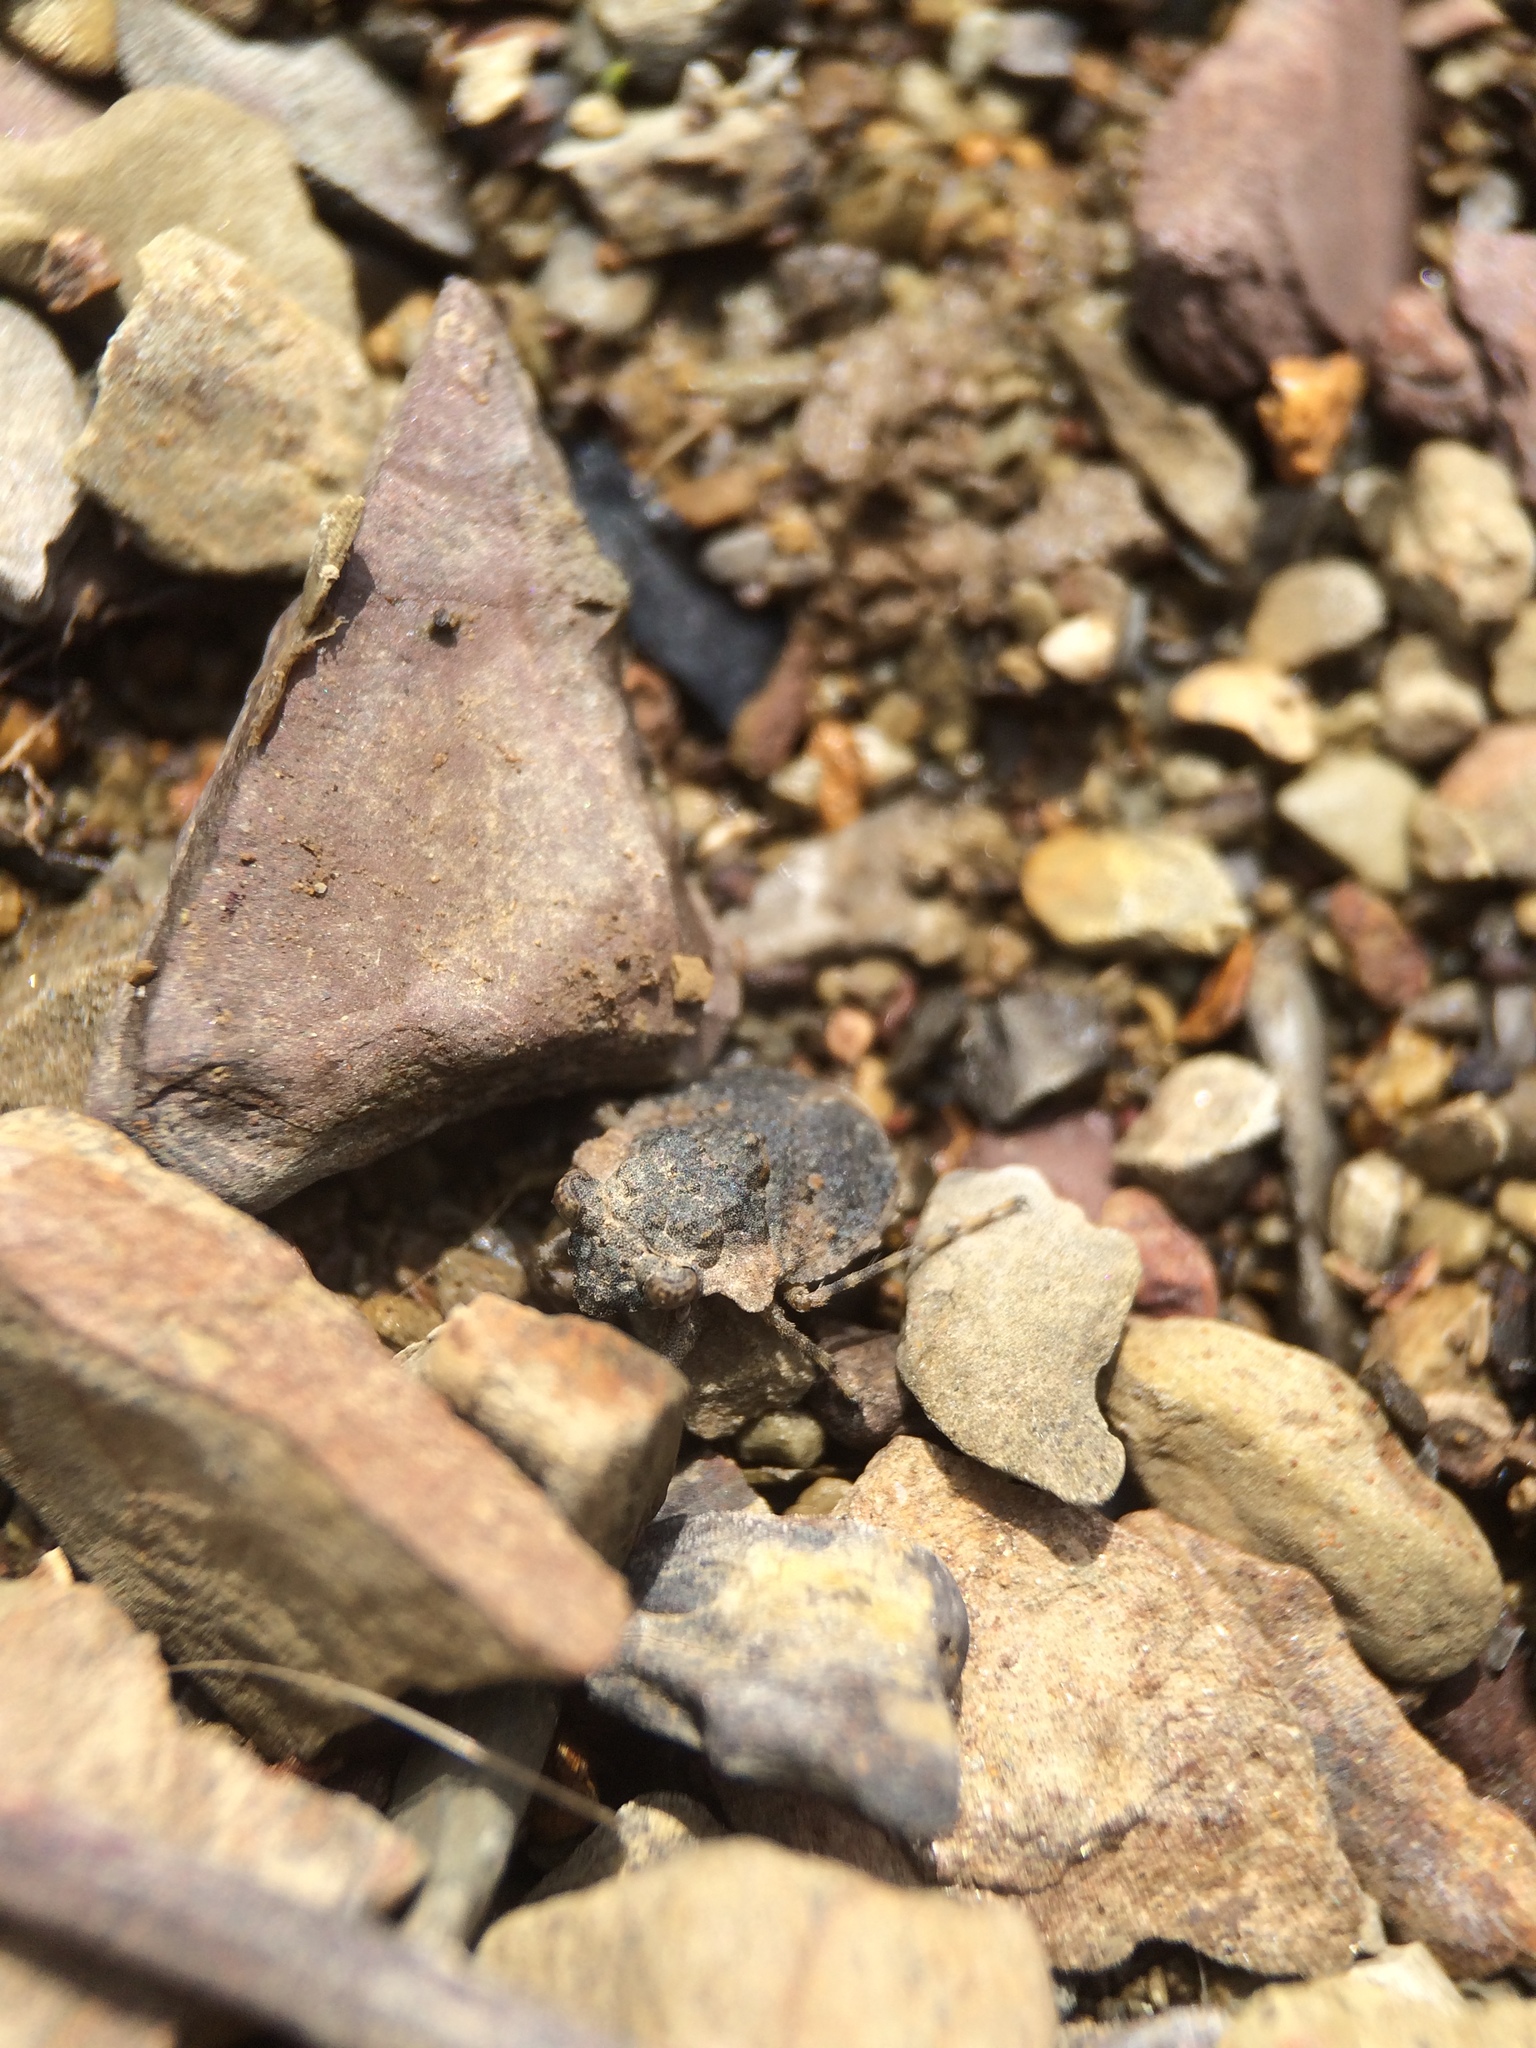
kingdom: Animalia
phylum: Arthropoda
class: Insecta
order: Hemiptera
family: Gelastocoridae
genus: Gelastocoris
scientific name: Gelastocoris oculatus
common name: Toad bug
